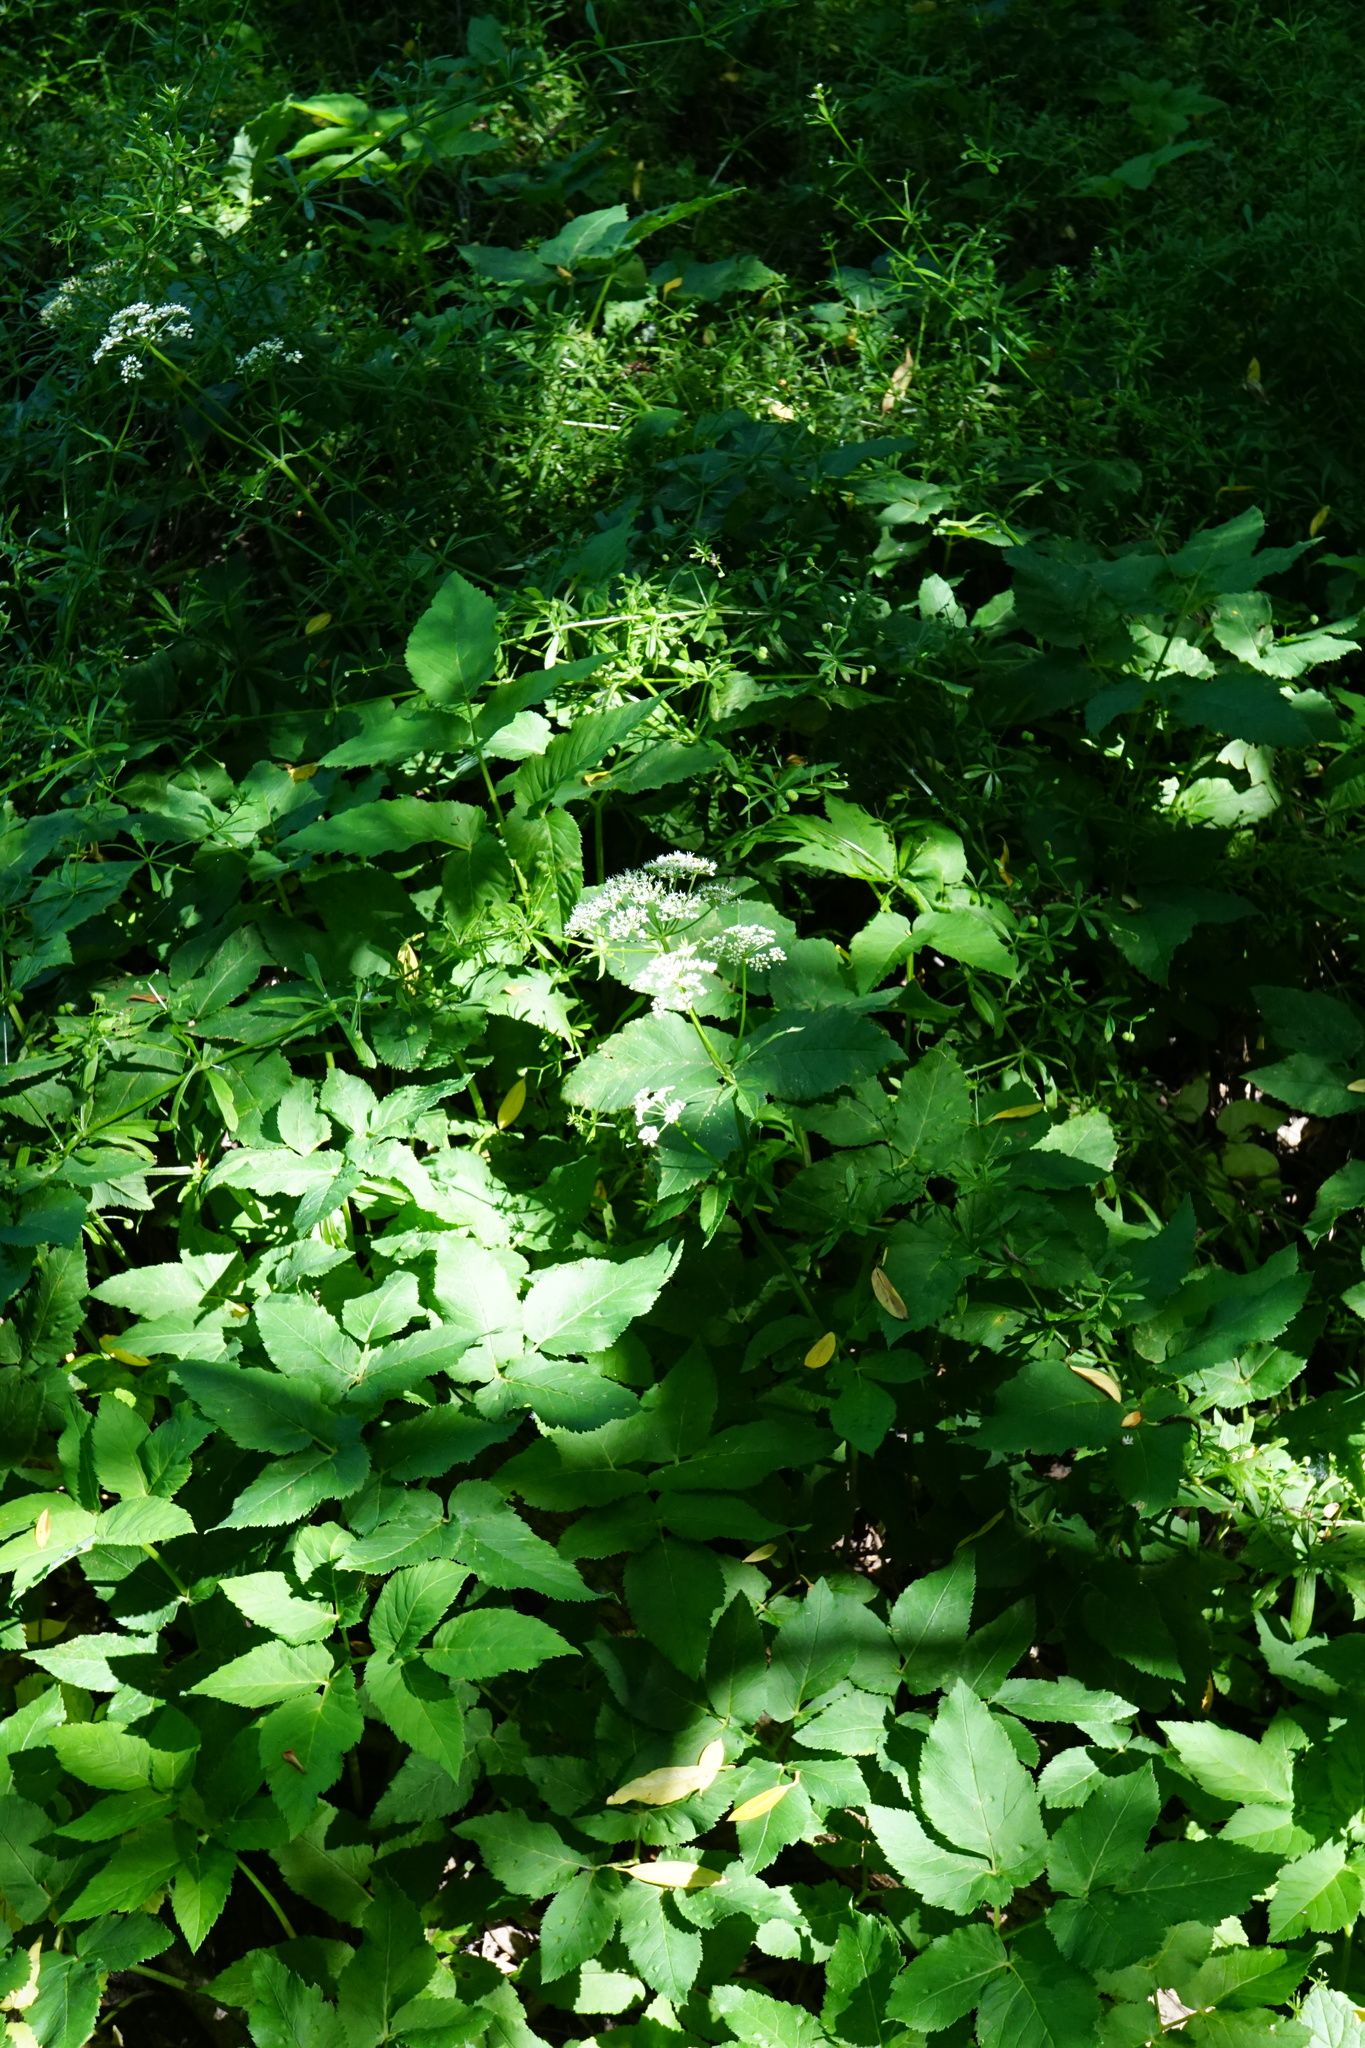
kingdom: Plantae
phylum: Tracheophyta
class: Magnoliopsida
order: Apiales
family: Apiaceae
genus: Aegopodium
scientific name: Aegopodium podagraria
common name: Ground-elder
